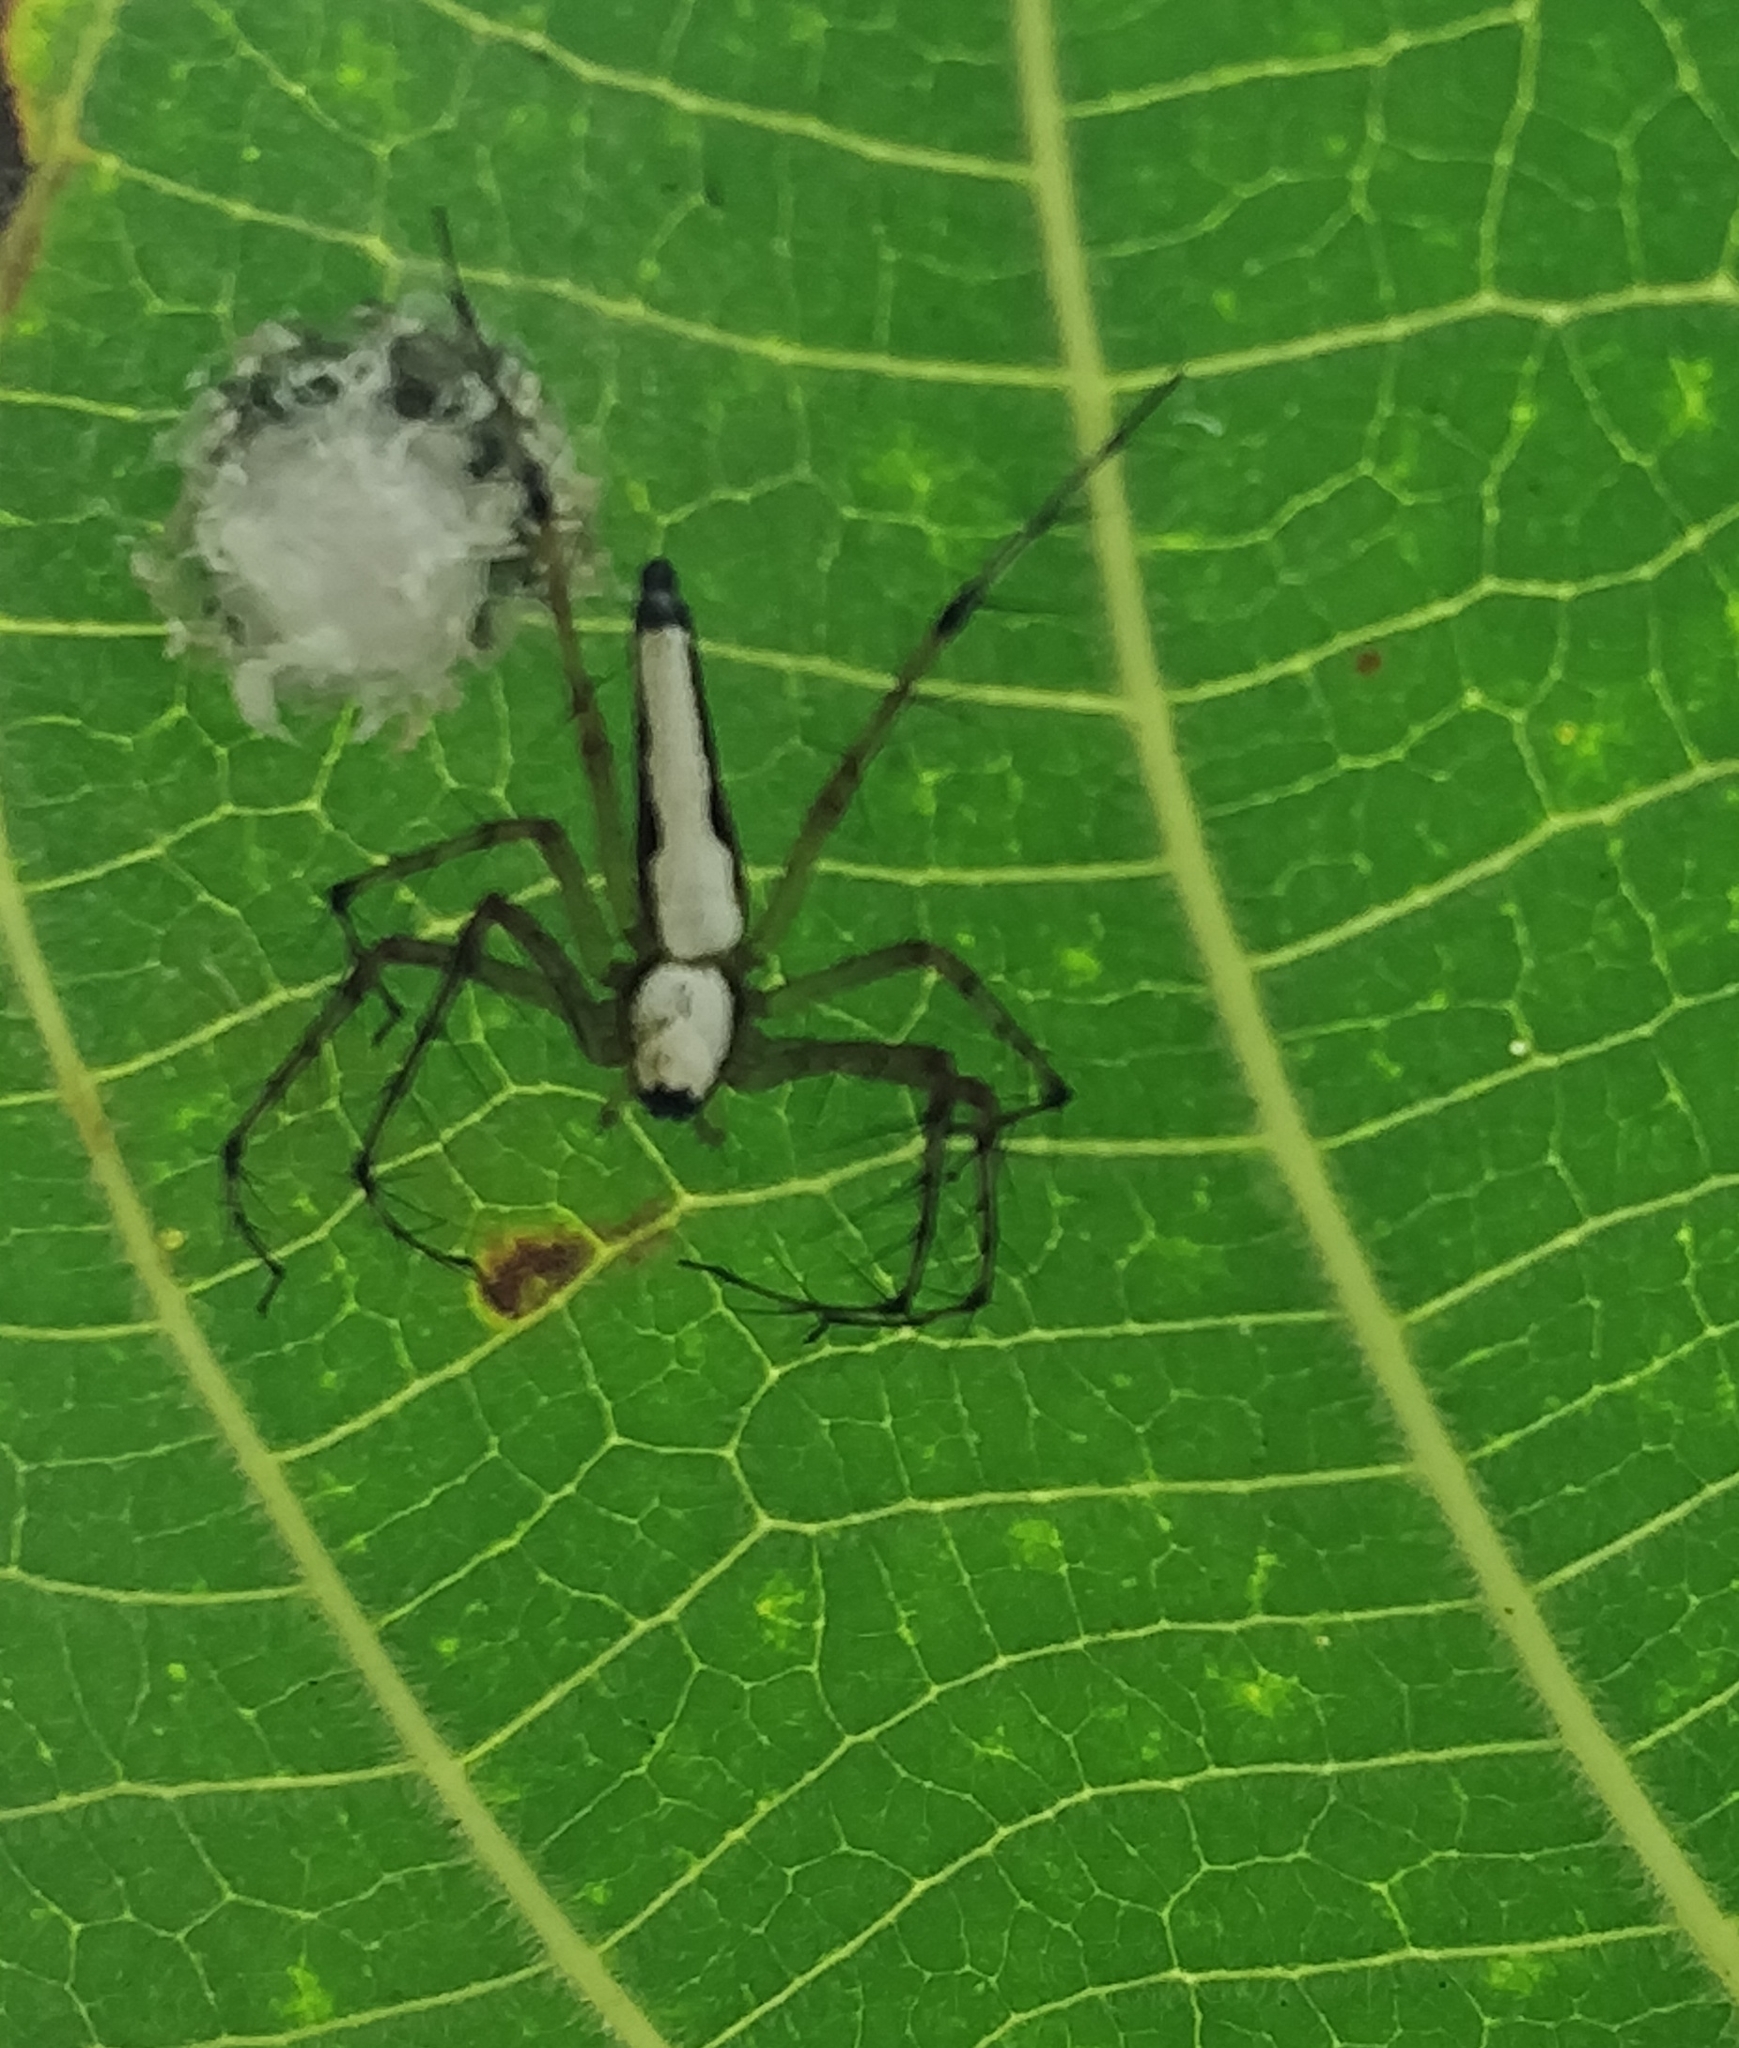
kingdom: Animalia
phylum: Arthropoda
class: Arachnida
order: Araneae
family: Oxyopidae
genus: Oxyopes
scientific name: Oxyopes shweta
